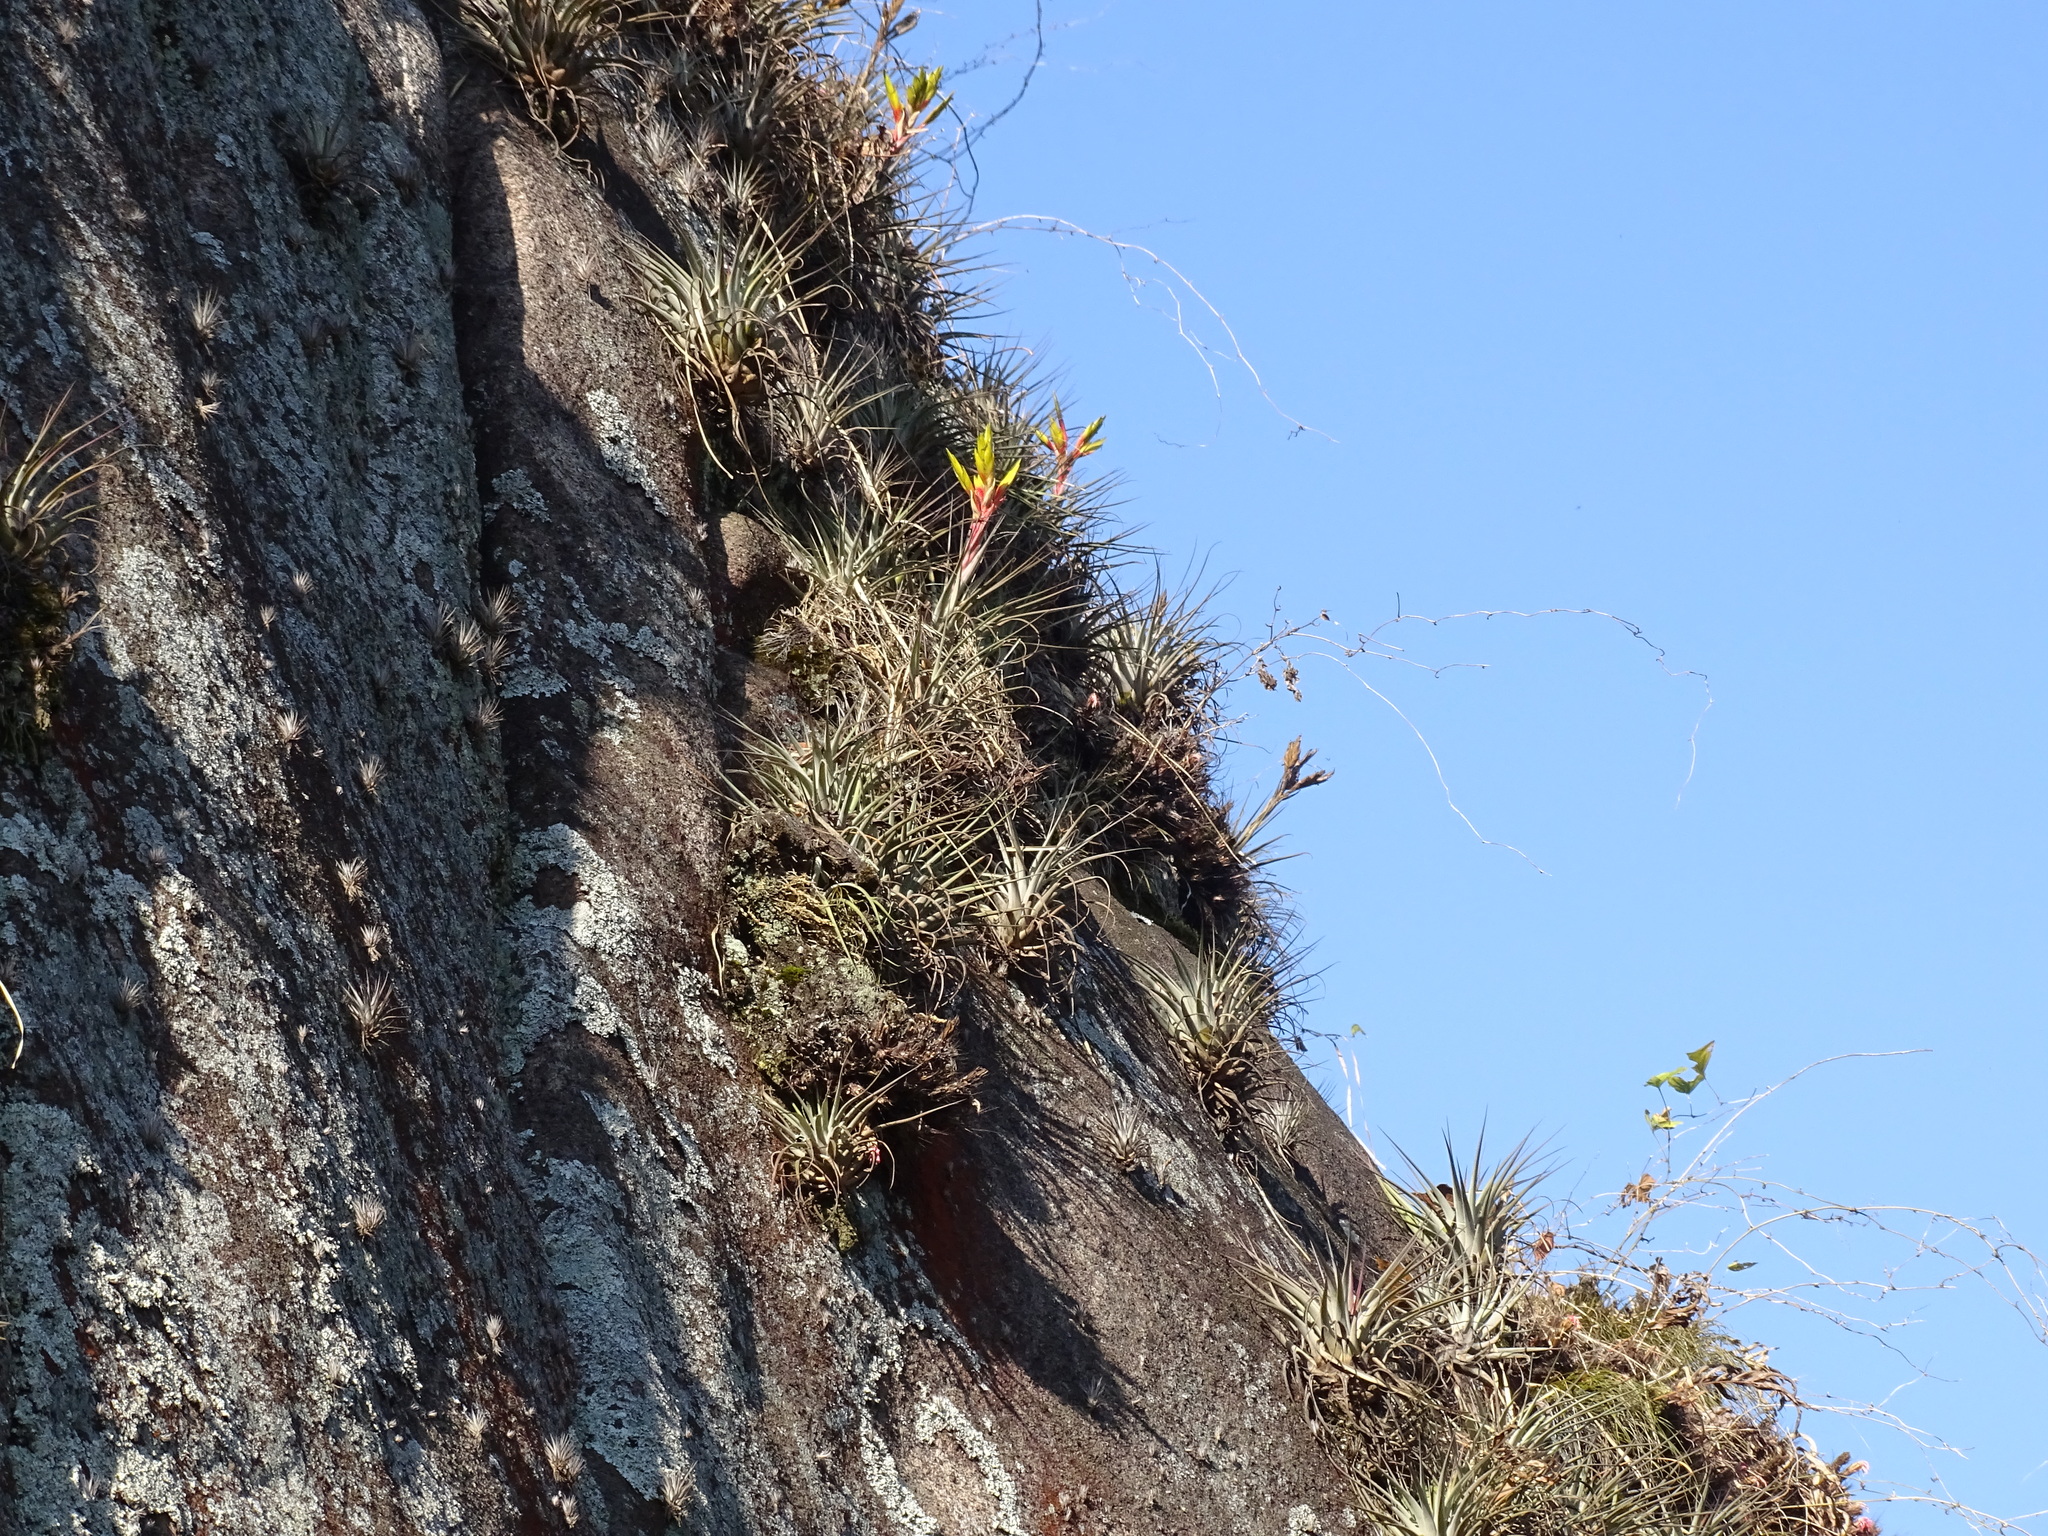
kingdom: Plantae
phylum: Tracheophyta
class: Liliopsida
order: Poales
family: Bromeliaceae
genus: Tillandsia
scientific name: Tillandsia fasciculata
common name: Giant airplant
